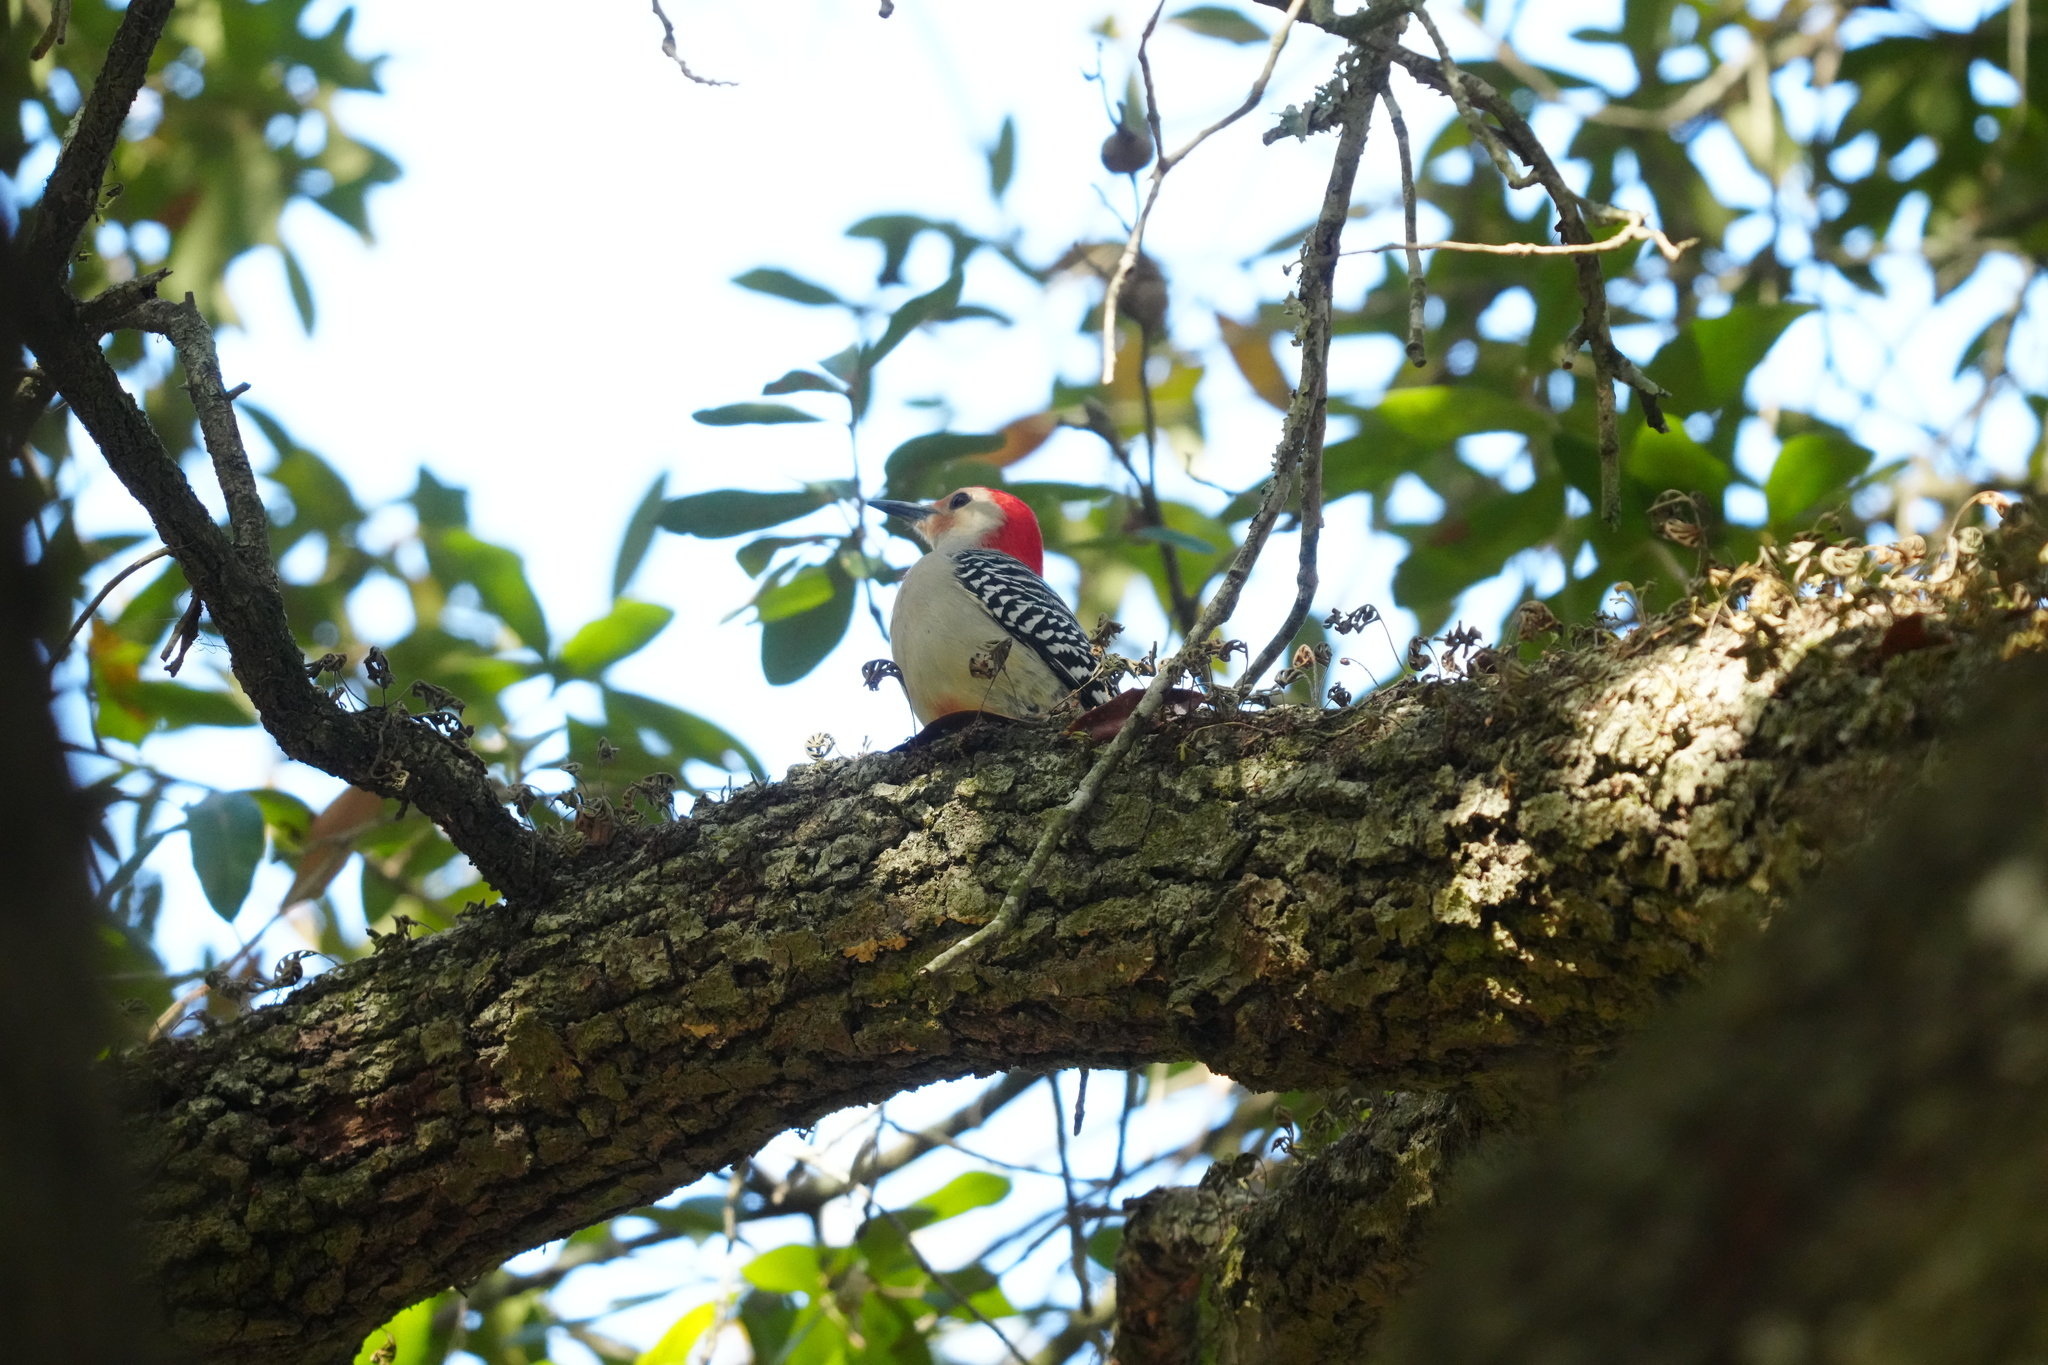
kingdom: Animalia
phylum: Chordata
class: Aves
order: Piciformes
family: Picidae
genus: Melanerpes
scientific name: Melanerpes carolinus
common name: Red-bellied woodpecker
